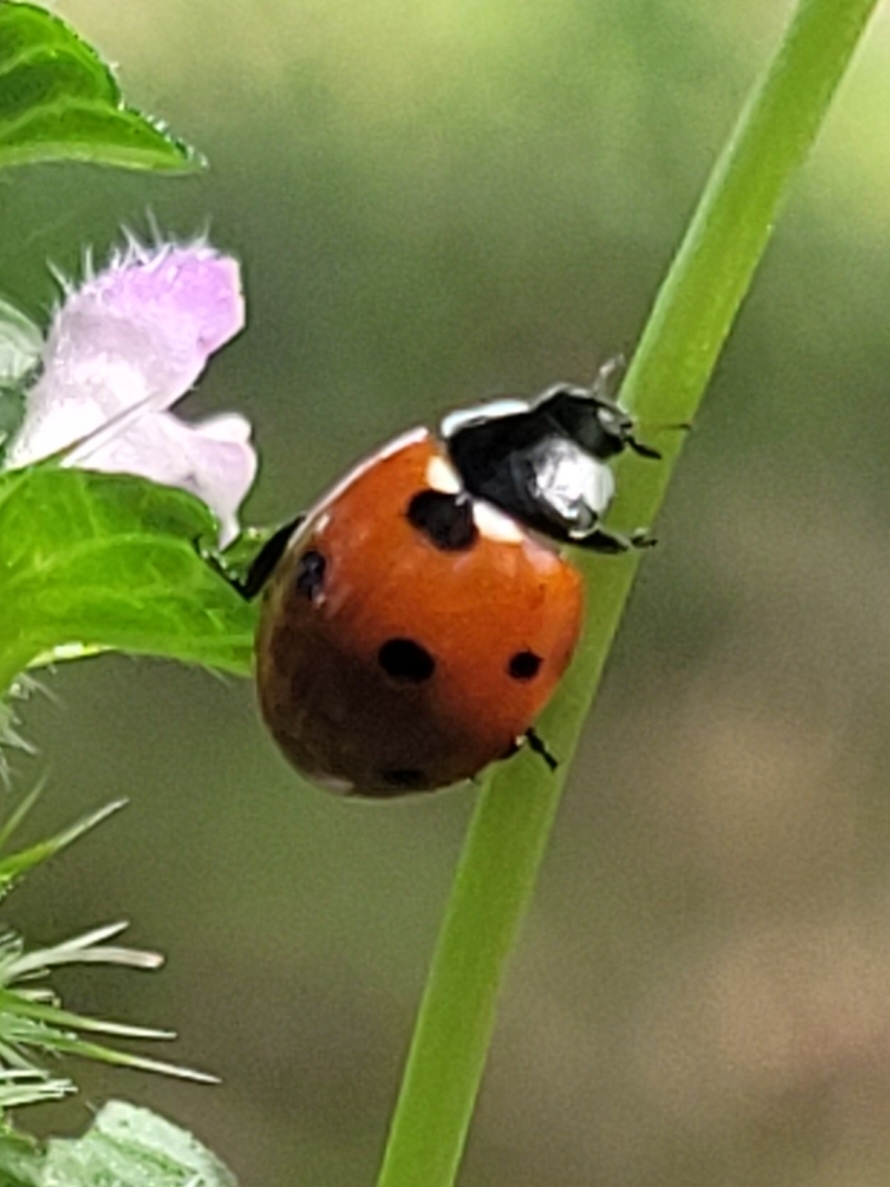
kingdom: Animalia
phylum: Arthropoda
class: Insecta
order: Coleoptera
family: Coccinellidae
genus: Coccinella
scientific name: Coccinella septempunctata
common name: Sevenspotted lady beetle
